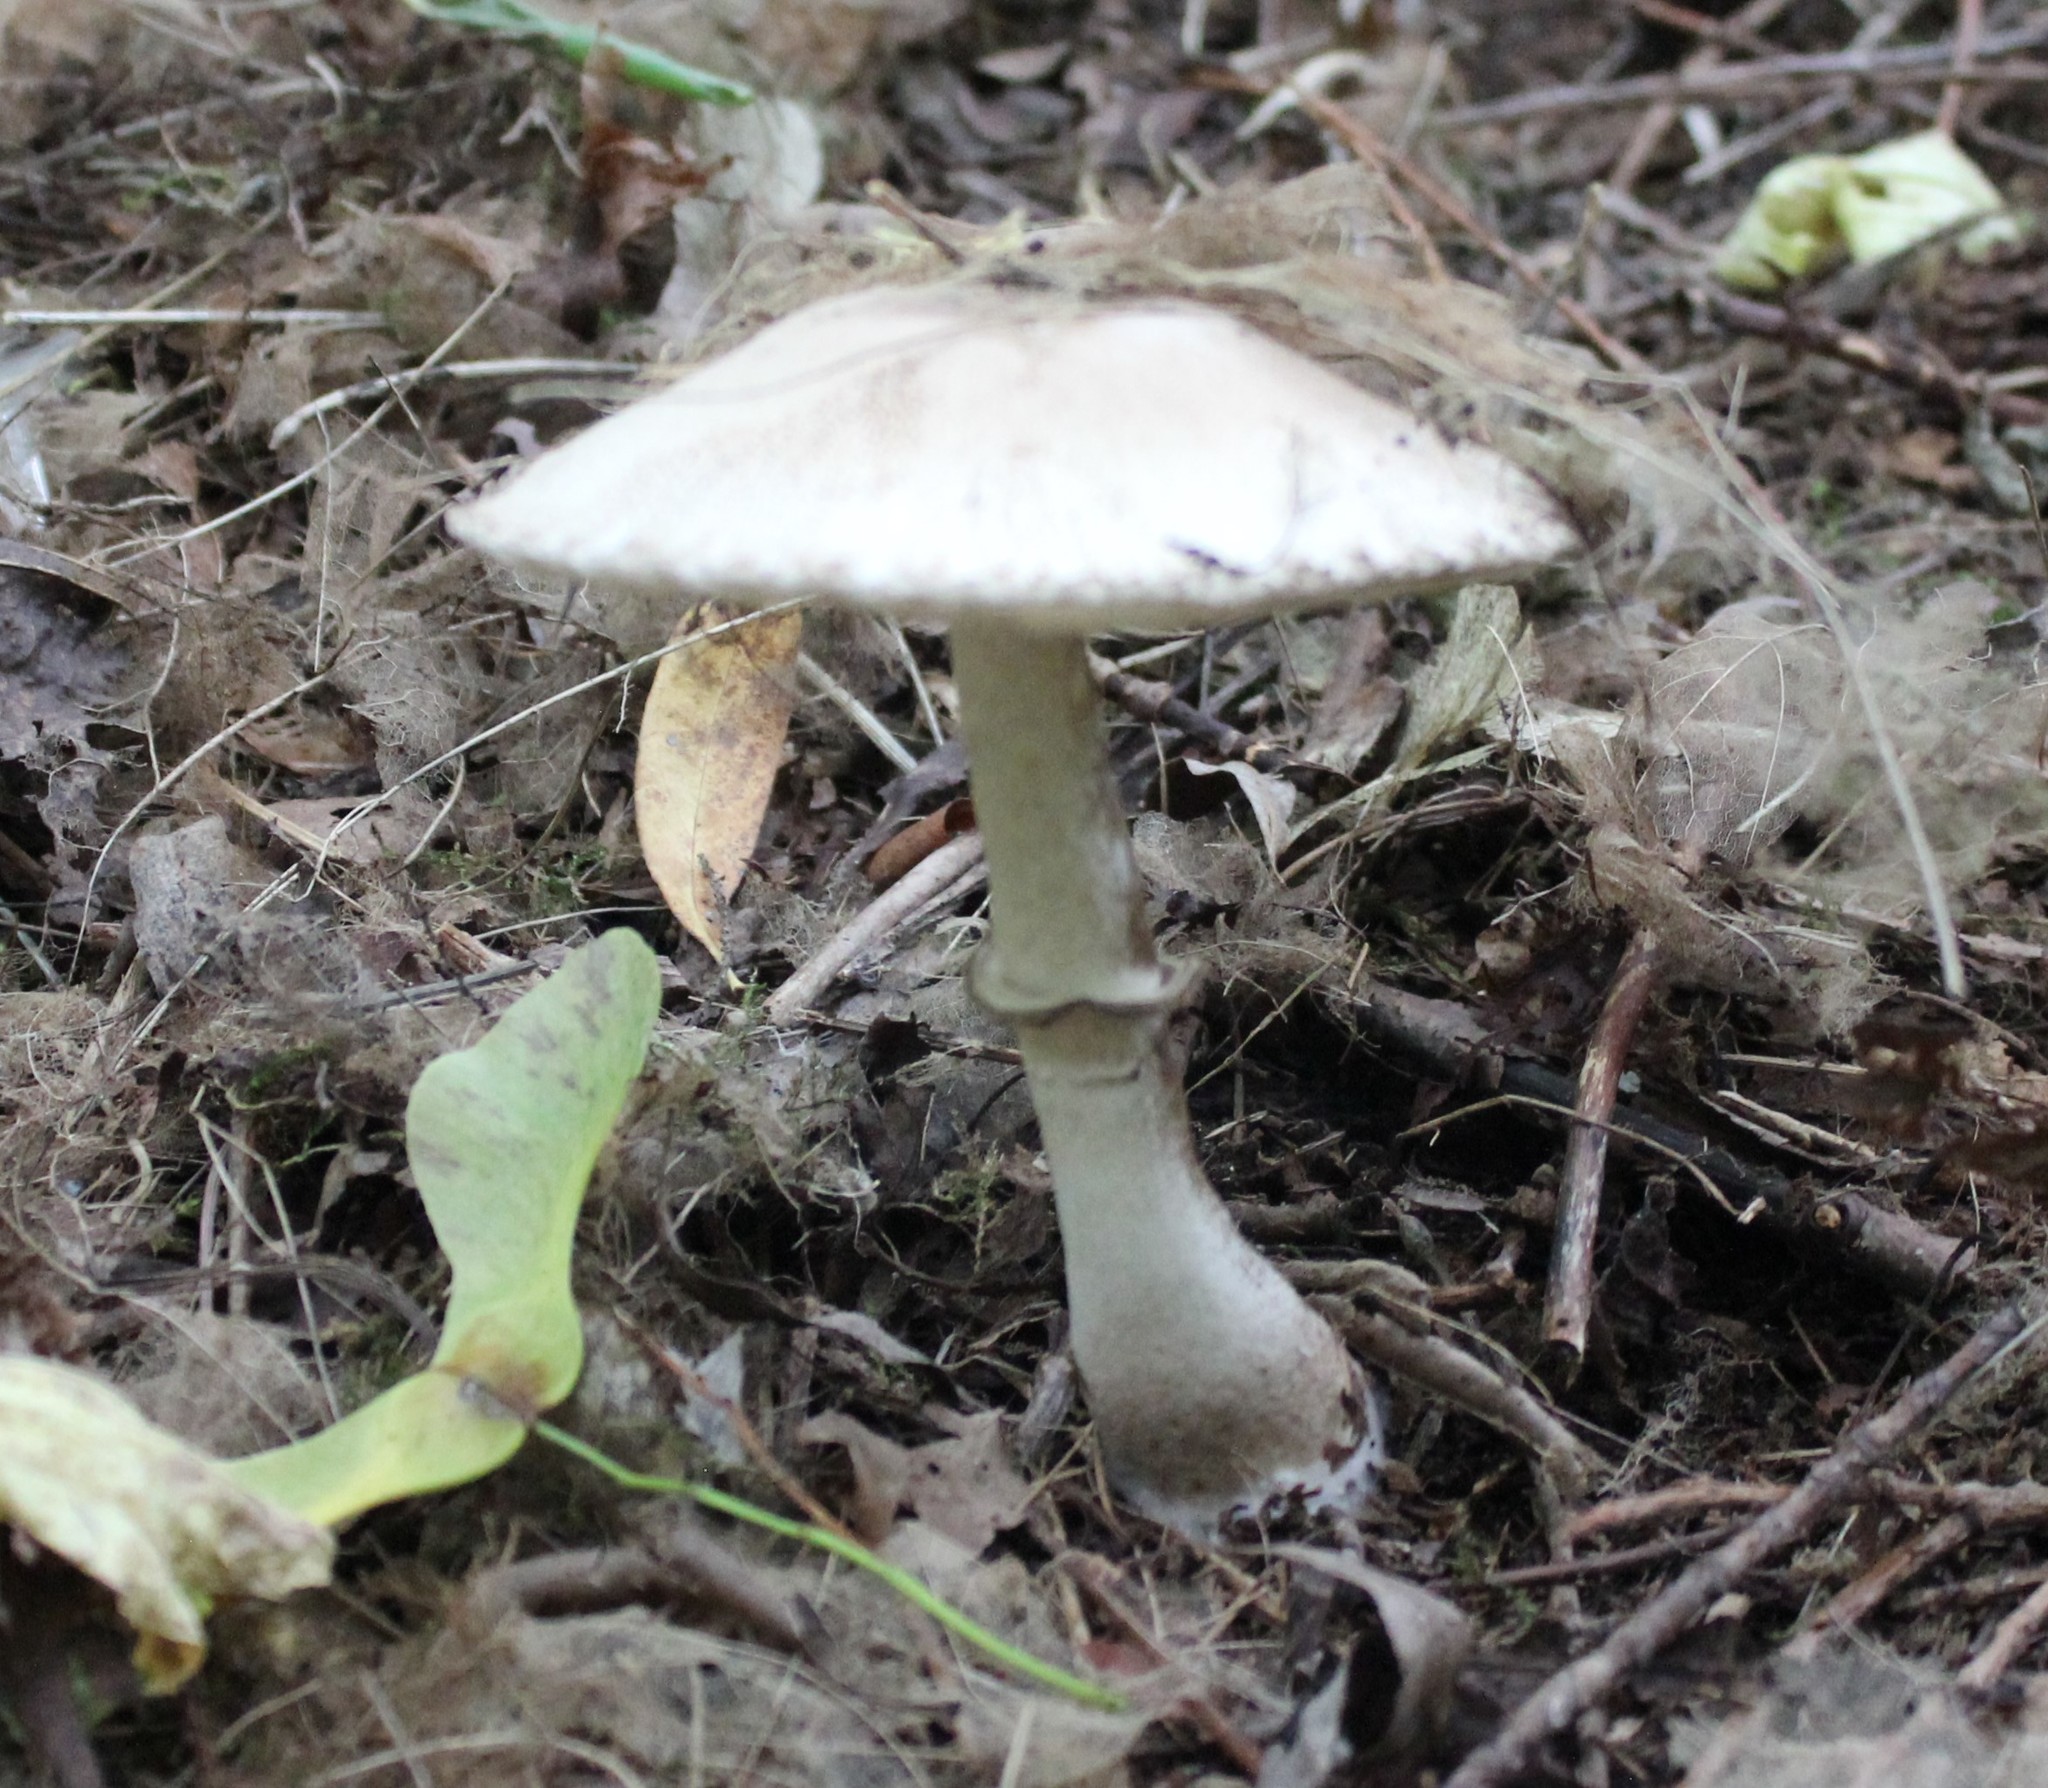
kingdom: Fungi
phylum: Basidiomycota
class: Agaricomycetes
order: Agaricales
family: Agaricaceae
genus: Leucoagaricus
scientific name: Leucoagaricus
